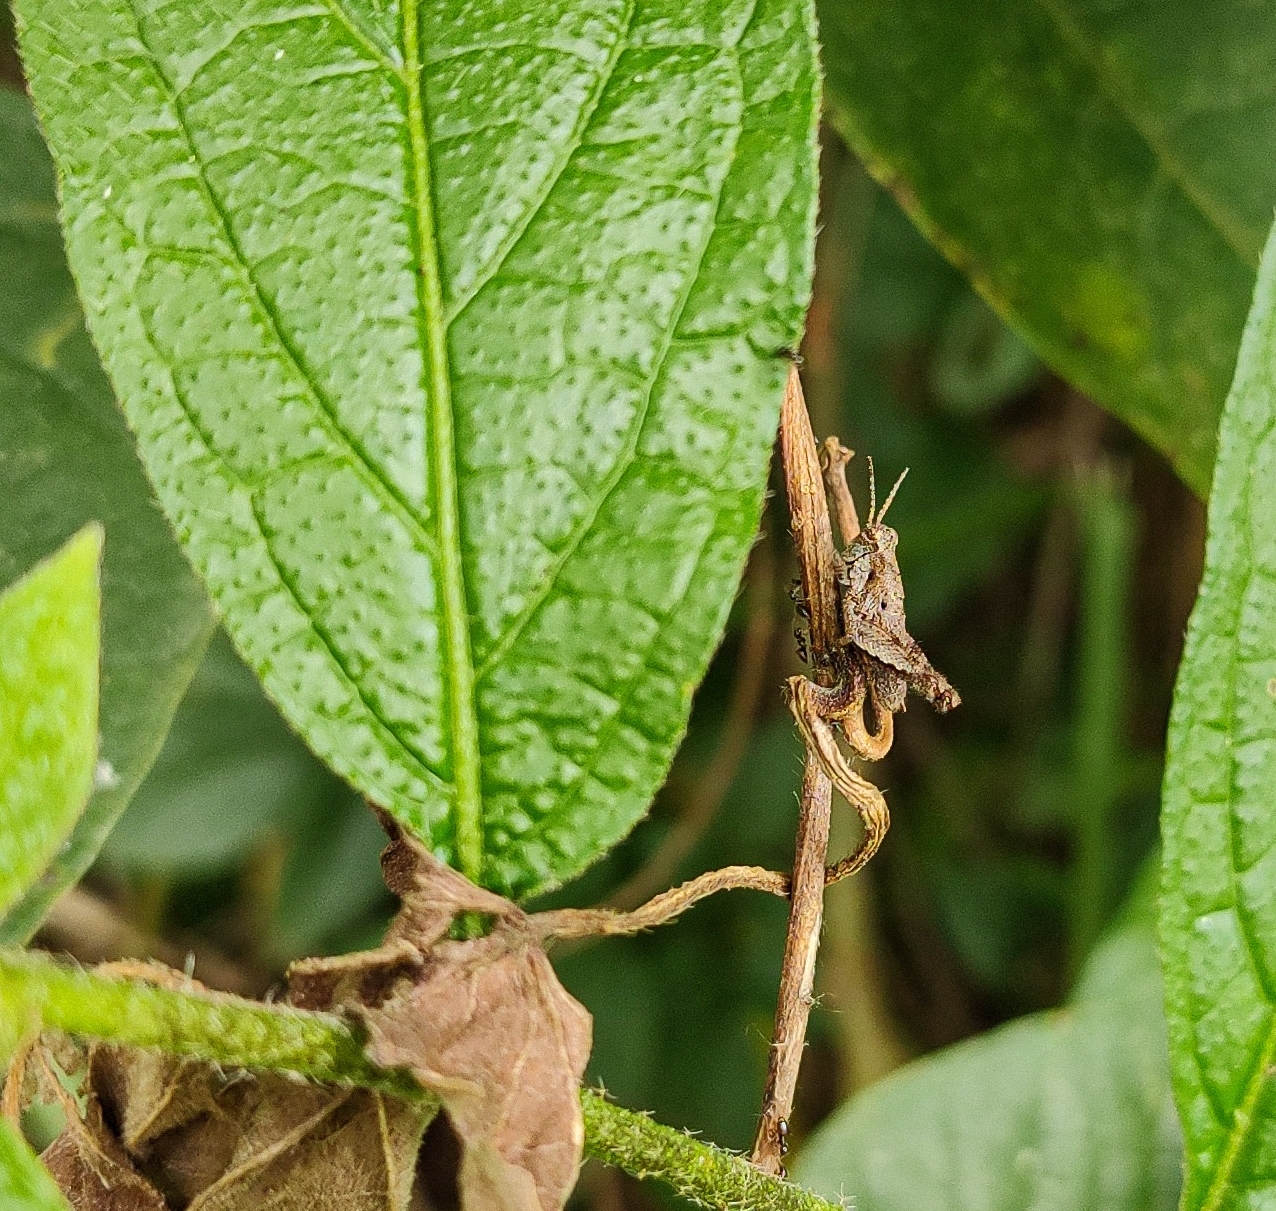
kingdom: Animalia
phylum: Arthropoda
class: Insecta
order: Orthoptera
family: Acrididae
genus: Ronderosia
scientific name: Ronderosia bergii
